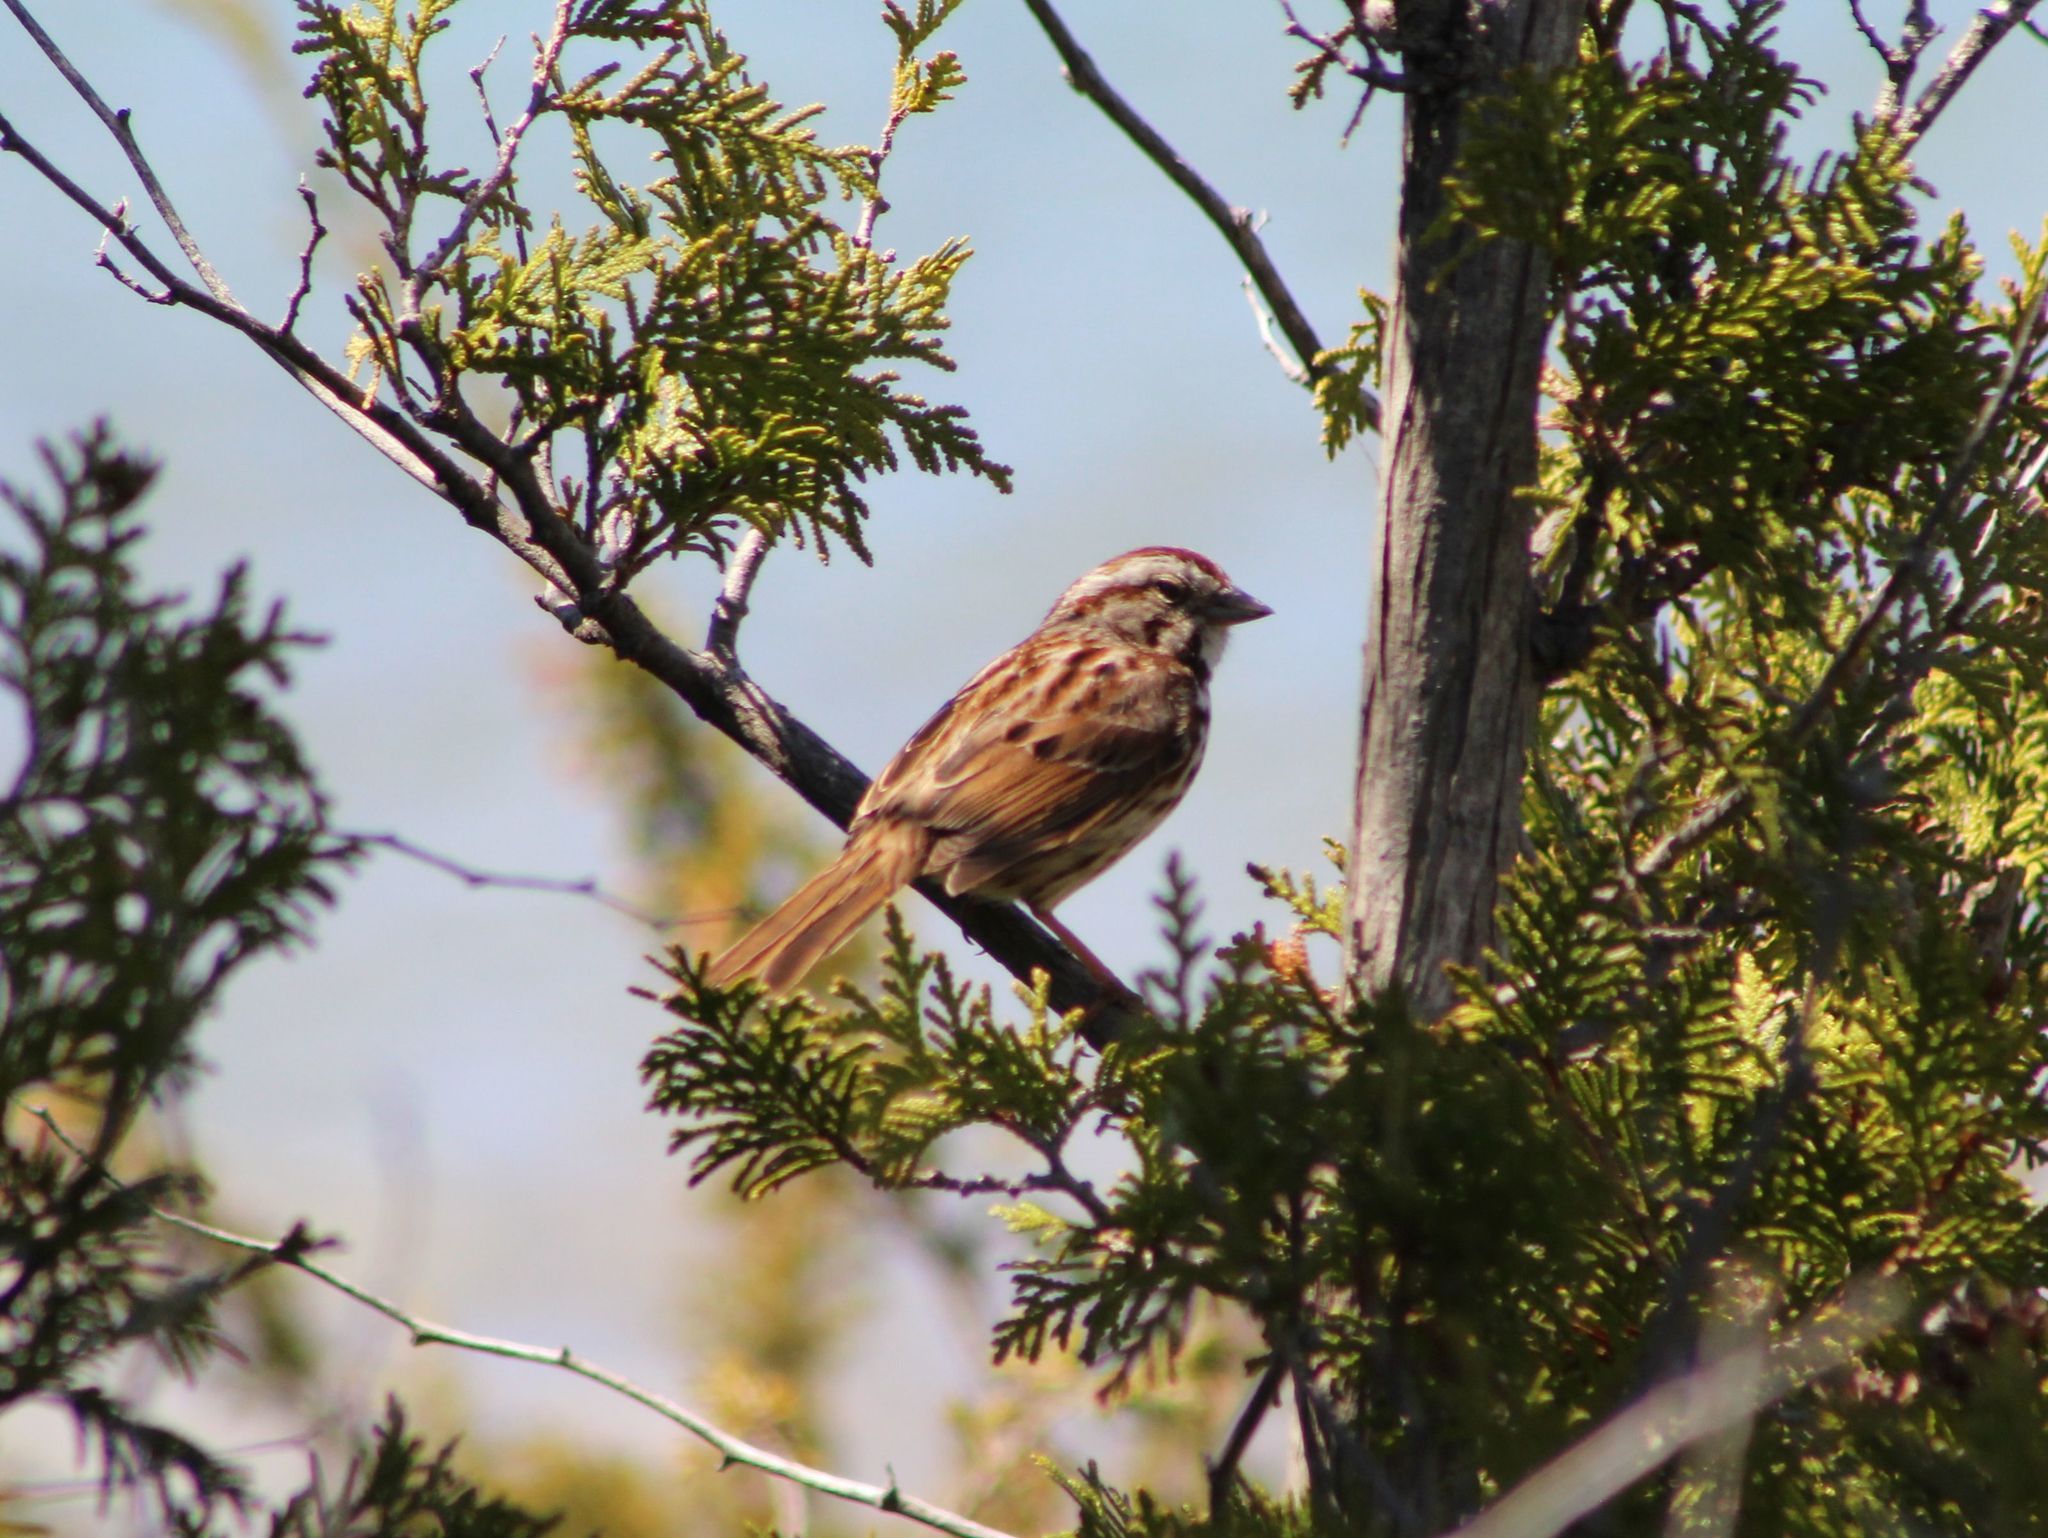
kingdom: Animalia
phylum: Chordata
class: Aves
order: Passeriformes
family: Passerellidae
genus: Melospiza
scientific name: Melospiza melodia
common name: Song sparrow
